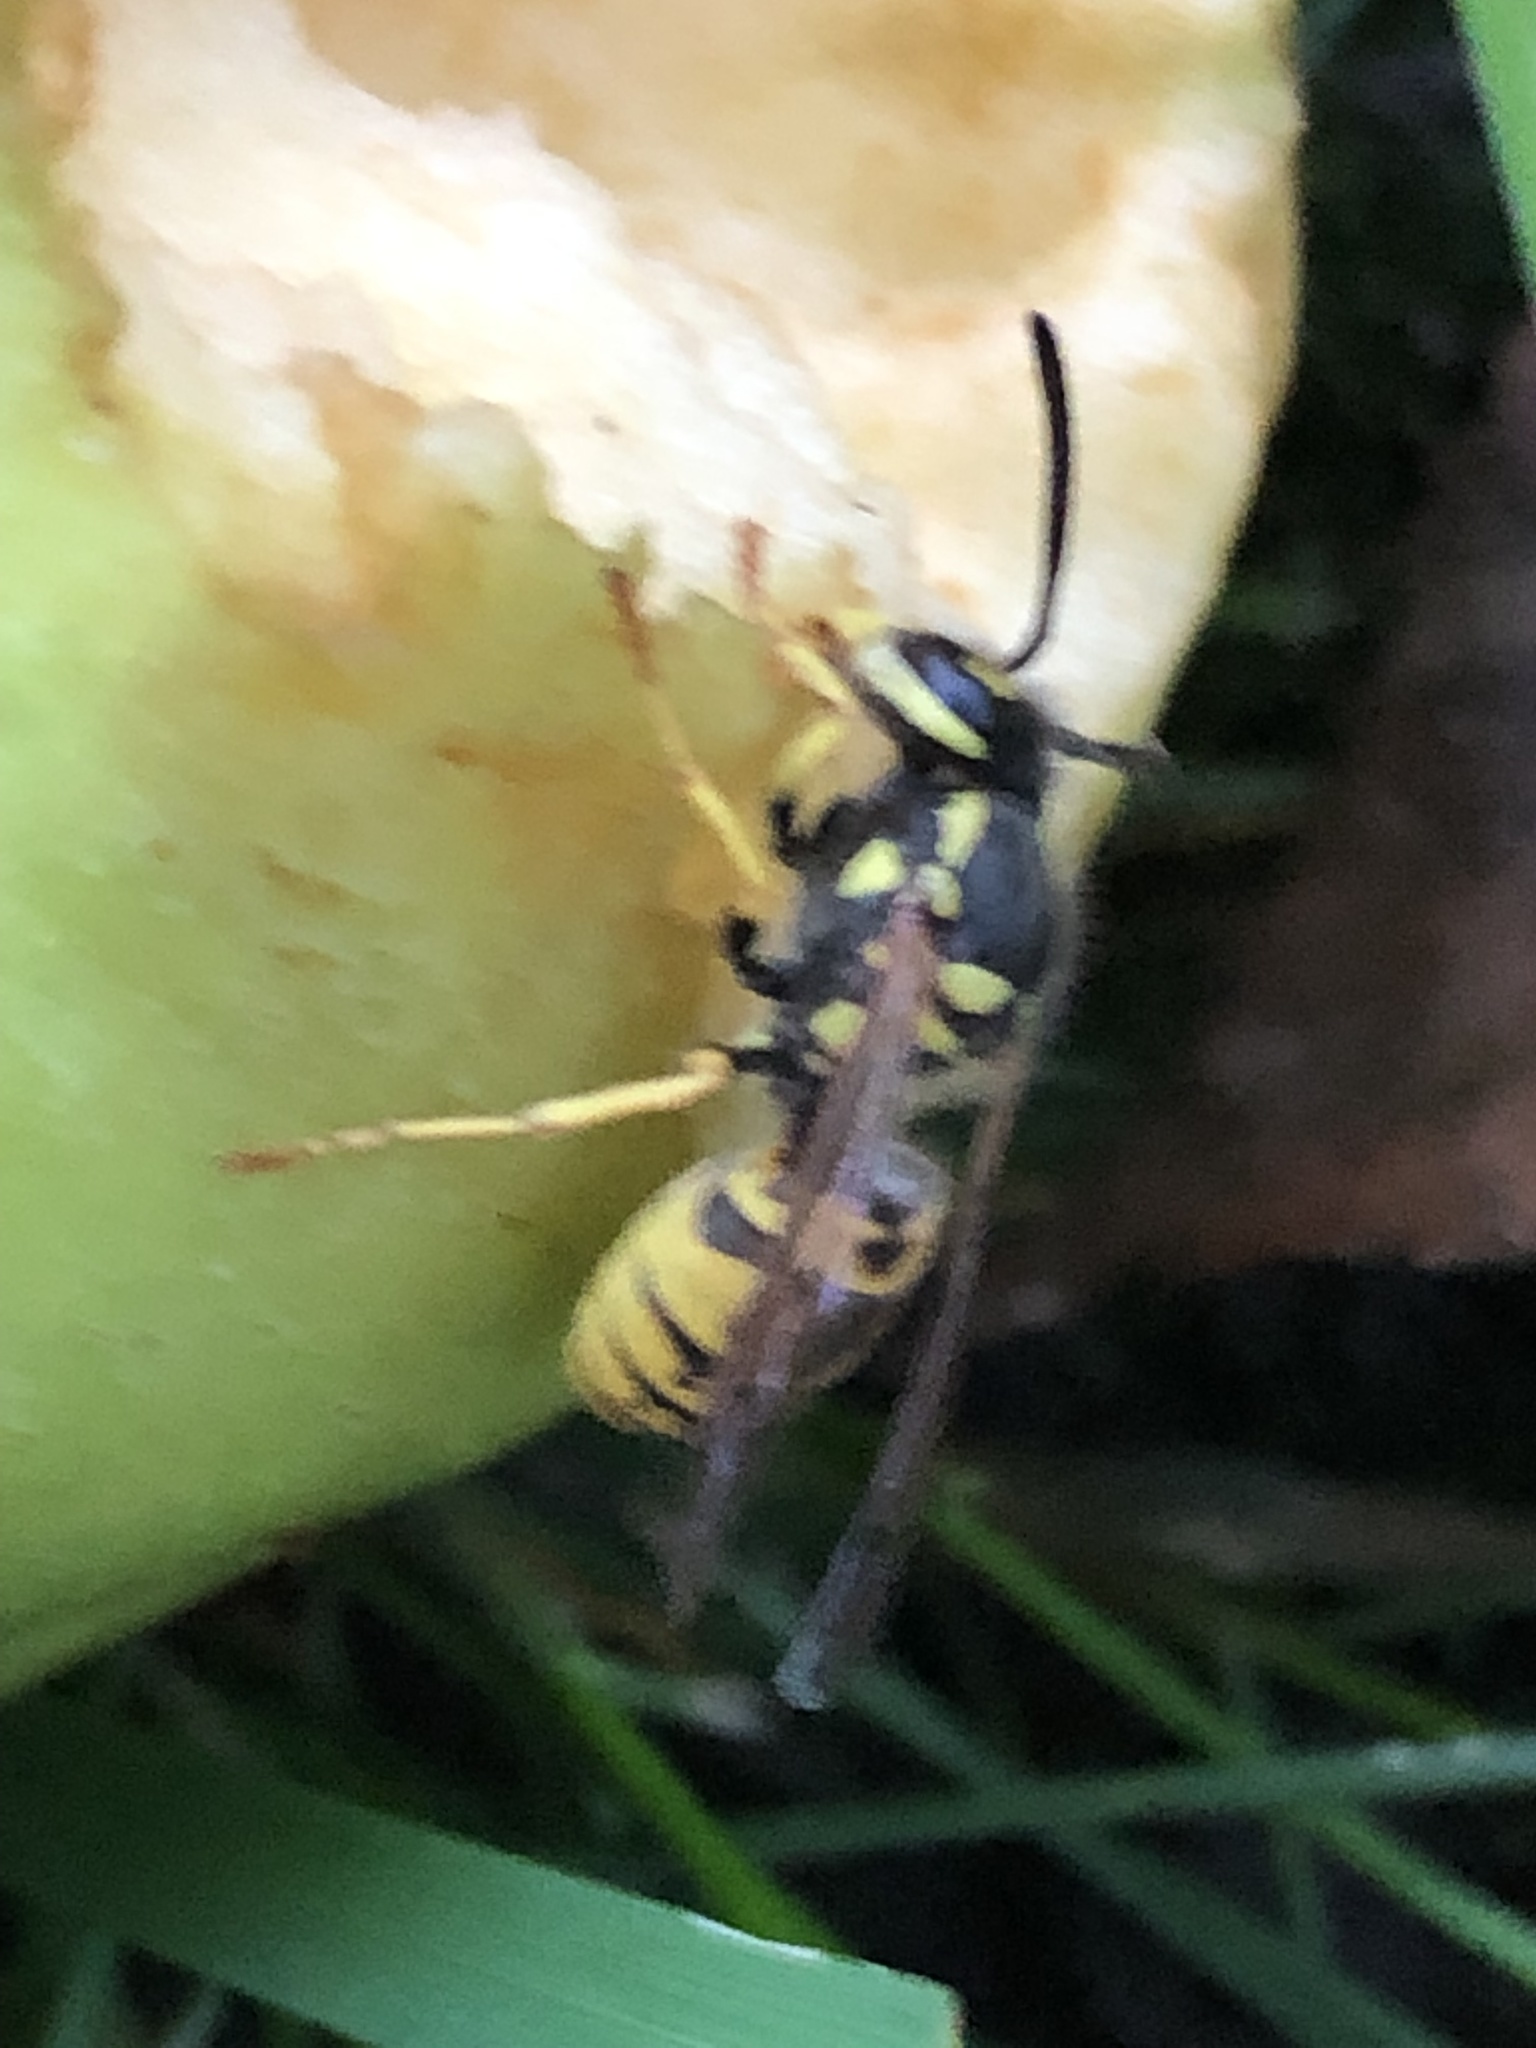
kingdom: Animalia
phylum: Arthropoda
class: Insecta
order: Hymenoptera
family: Vespidae
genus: Vespula
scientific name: Vespula germanica
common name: German wasp
